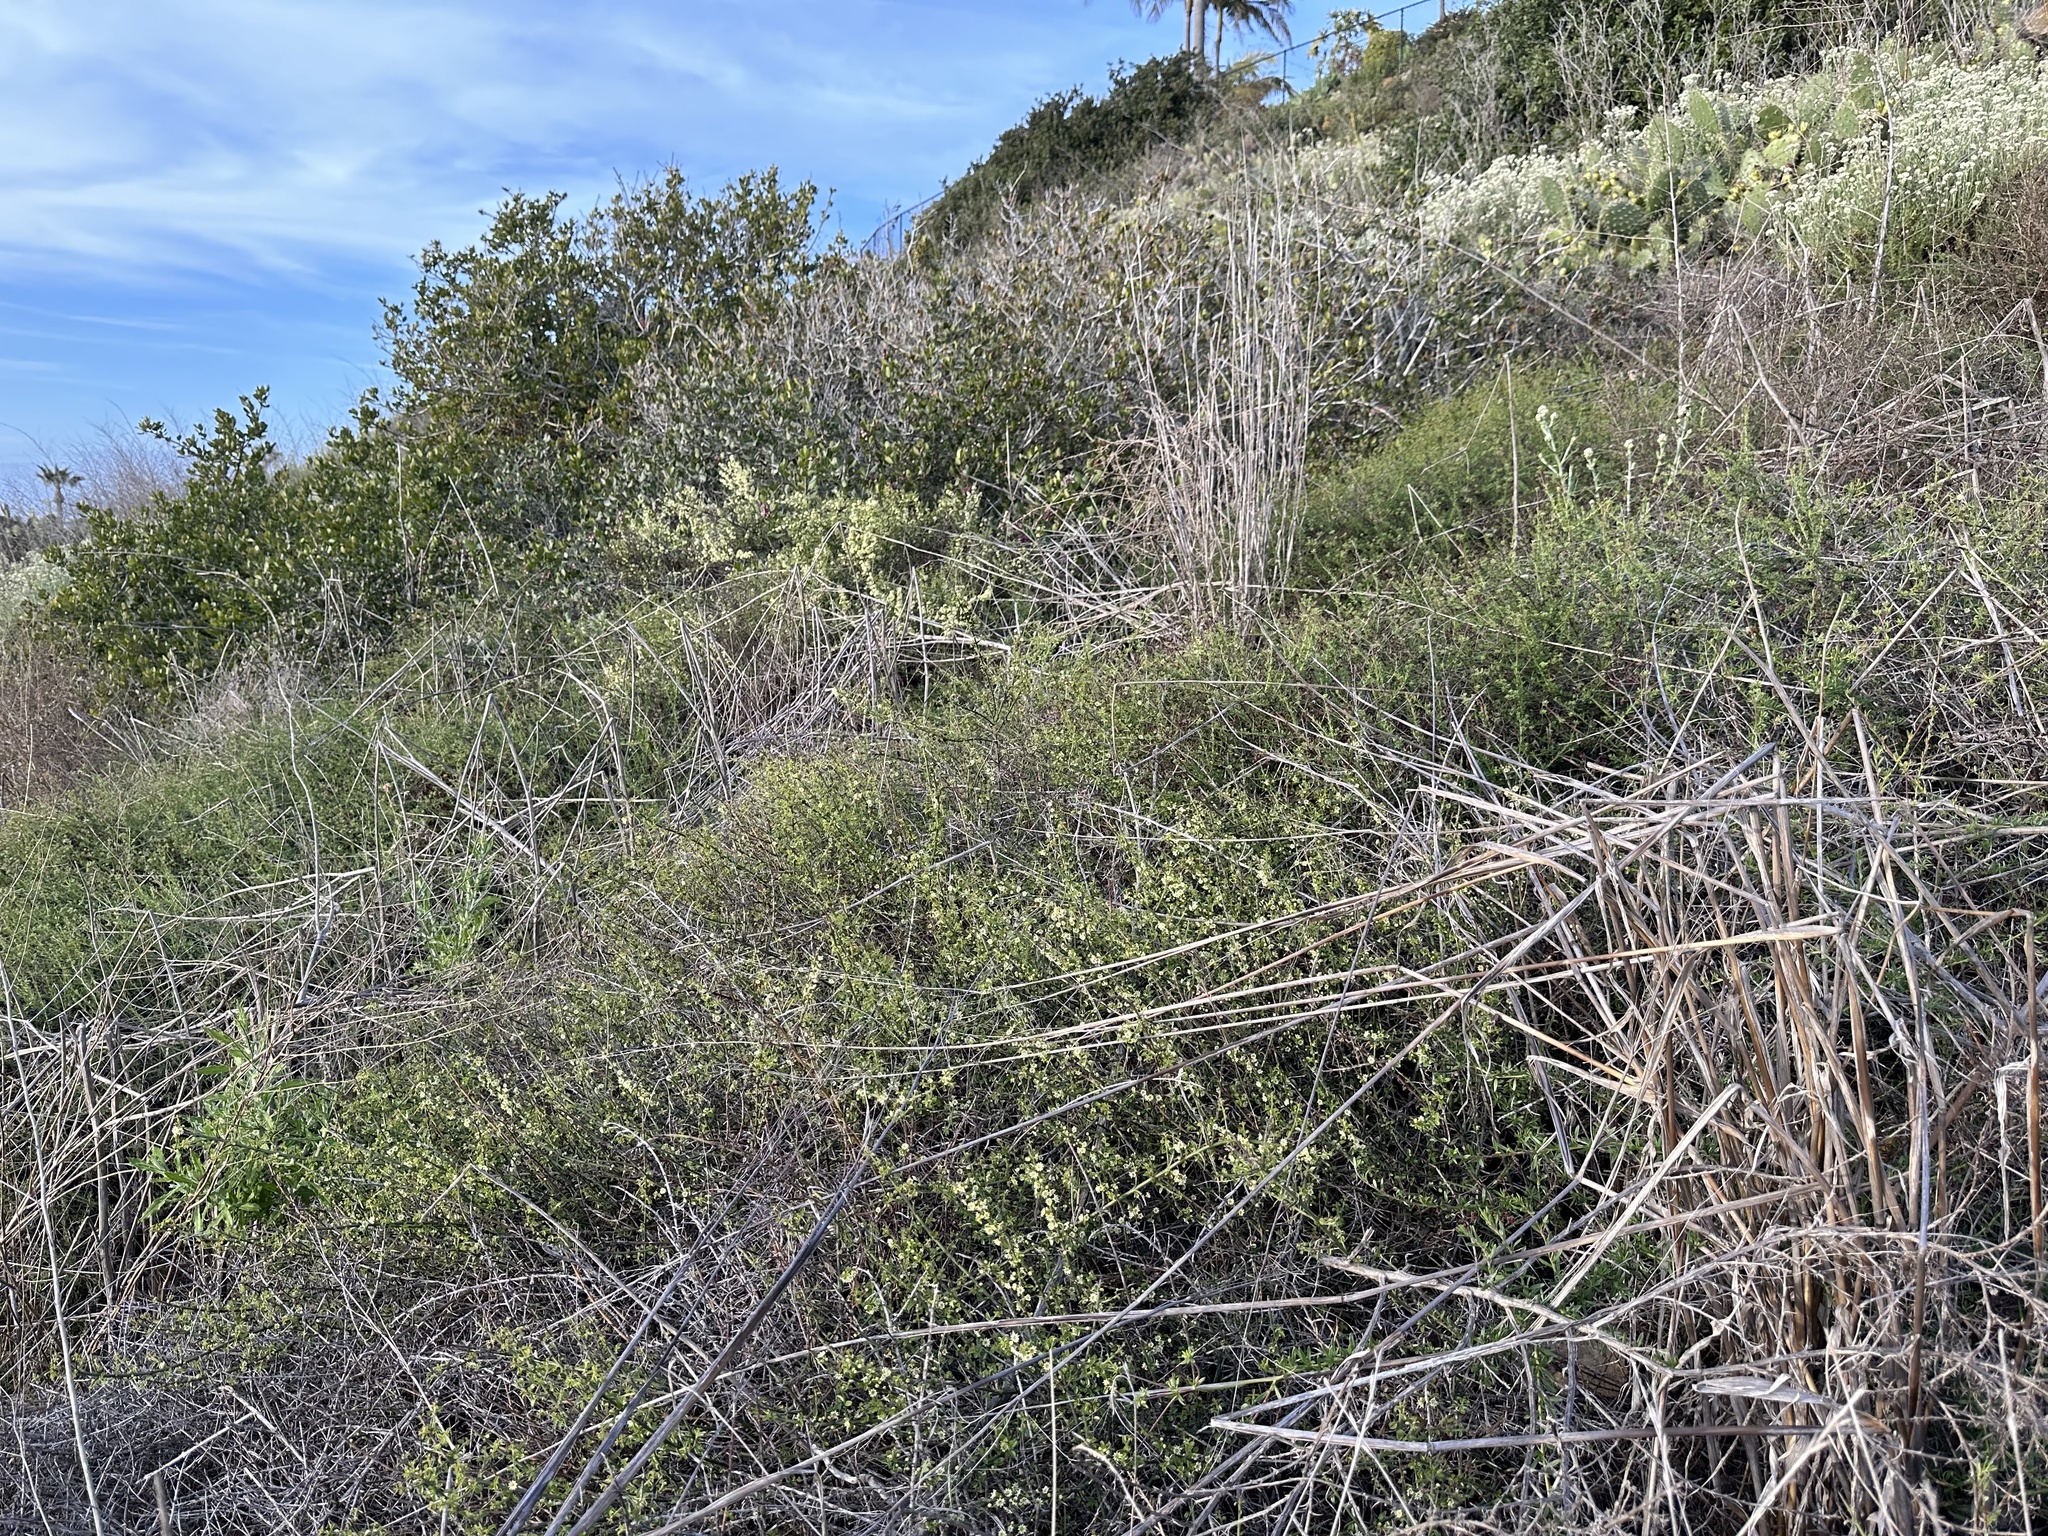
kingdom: Plantae
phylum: Tracheophyta
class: Magnoliopsida
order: Rosales
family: Rhamnaceae
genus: Adolphia
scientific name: Adolphia californica
